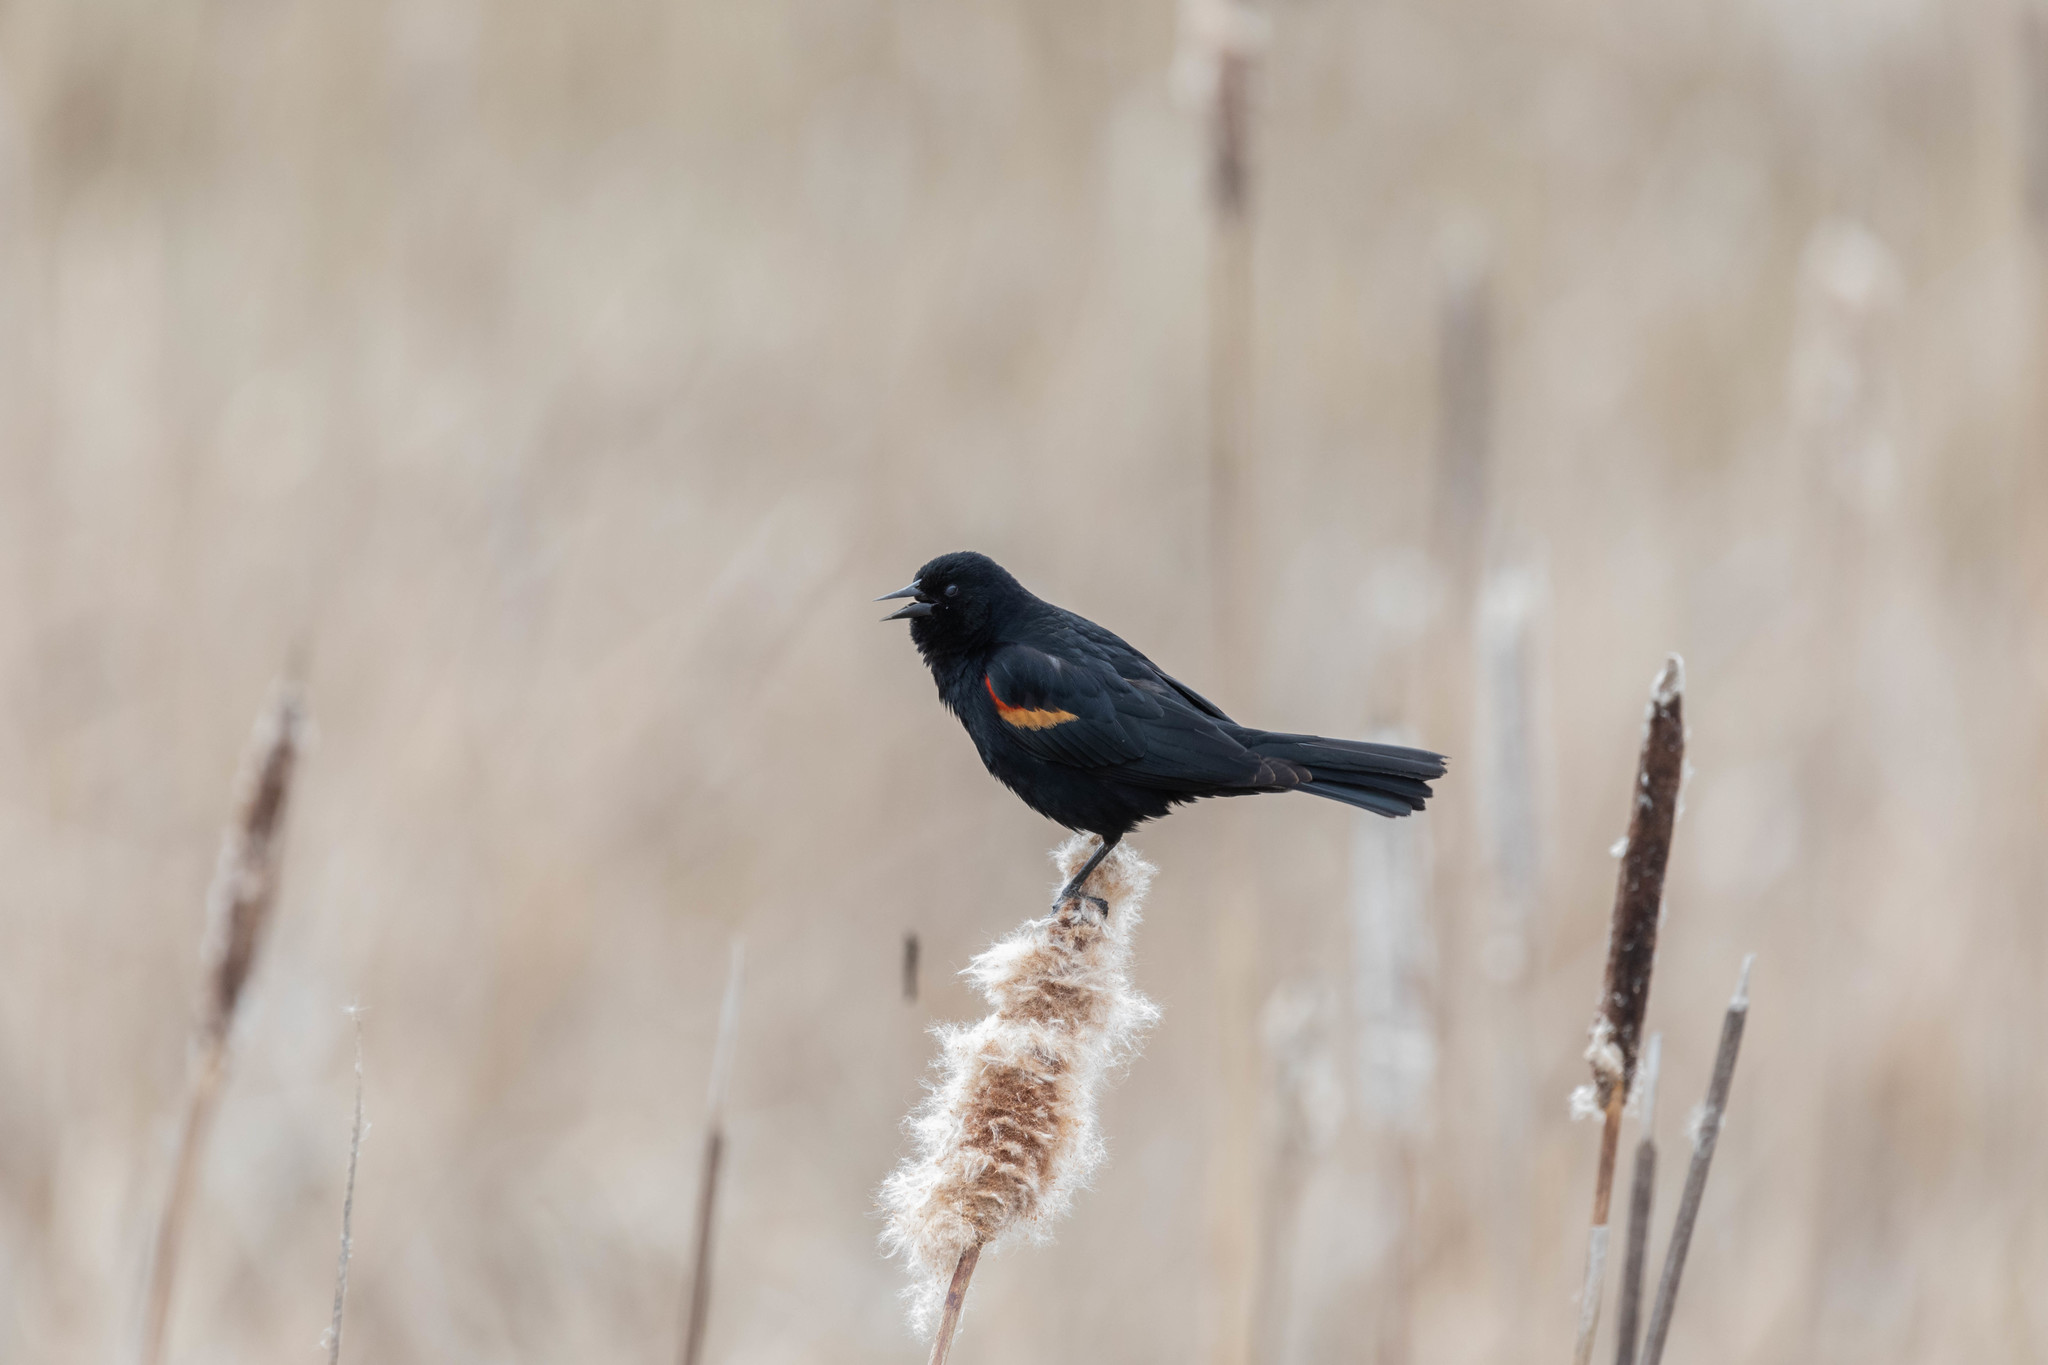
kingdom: Animalia
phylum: Chordata
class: Aves
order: Passeriformes
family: Icteridae
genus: Agelaius
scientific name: Agelaius phoeniceus
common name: Red-winged blackbird
